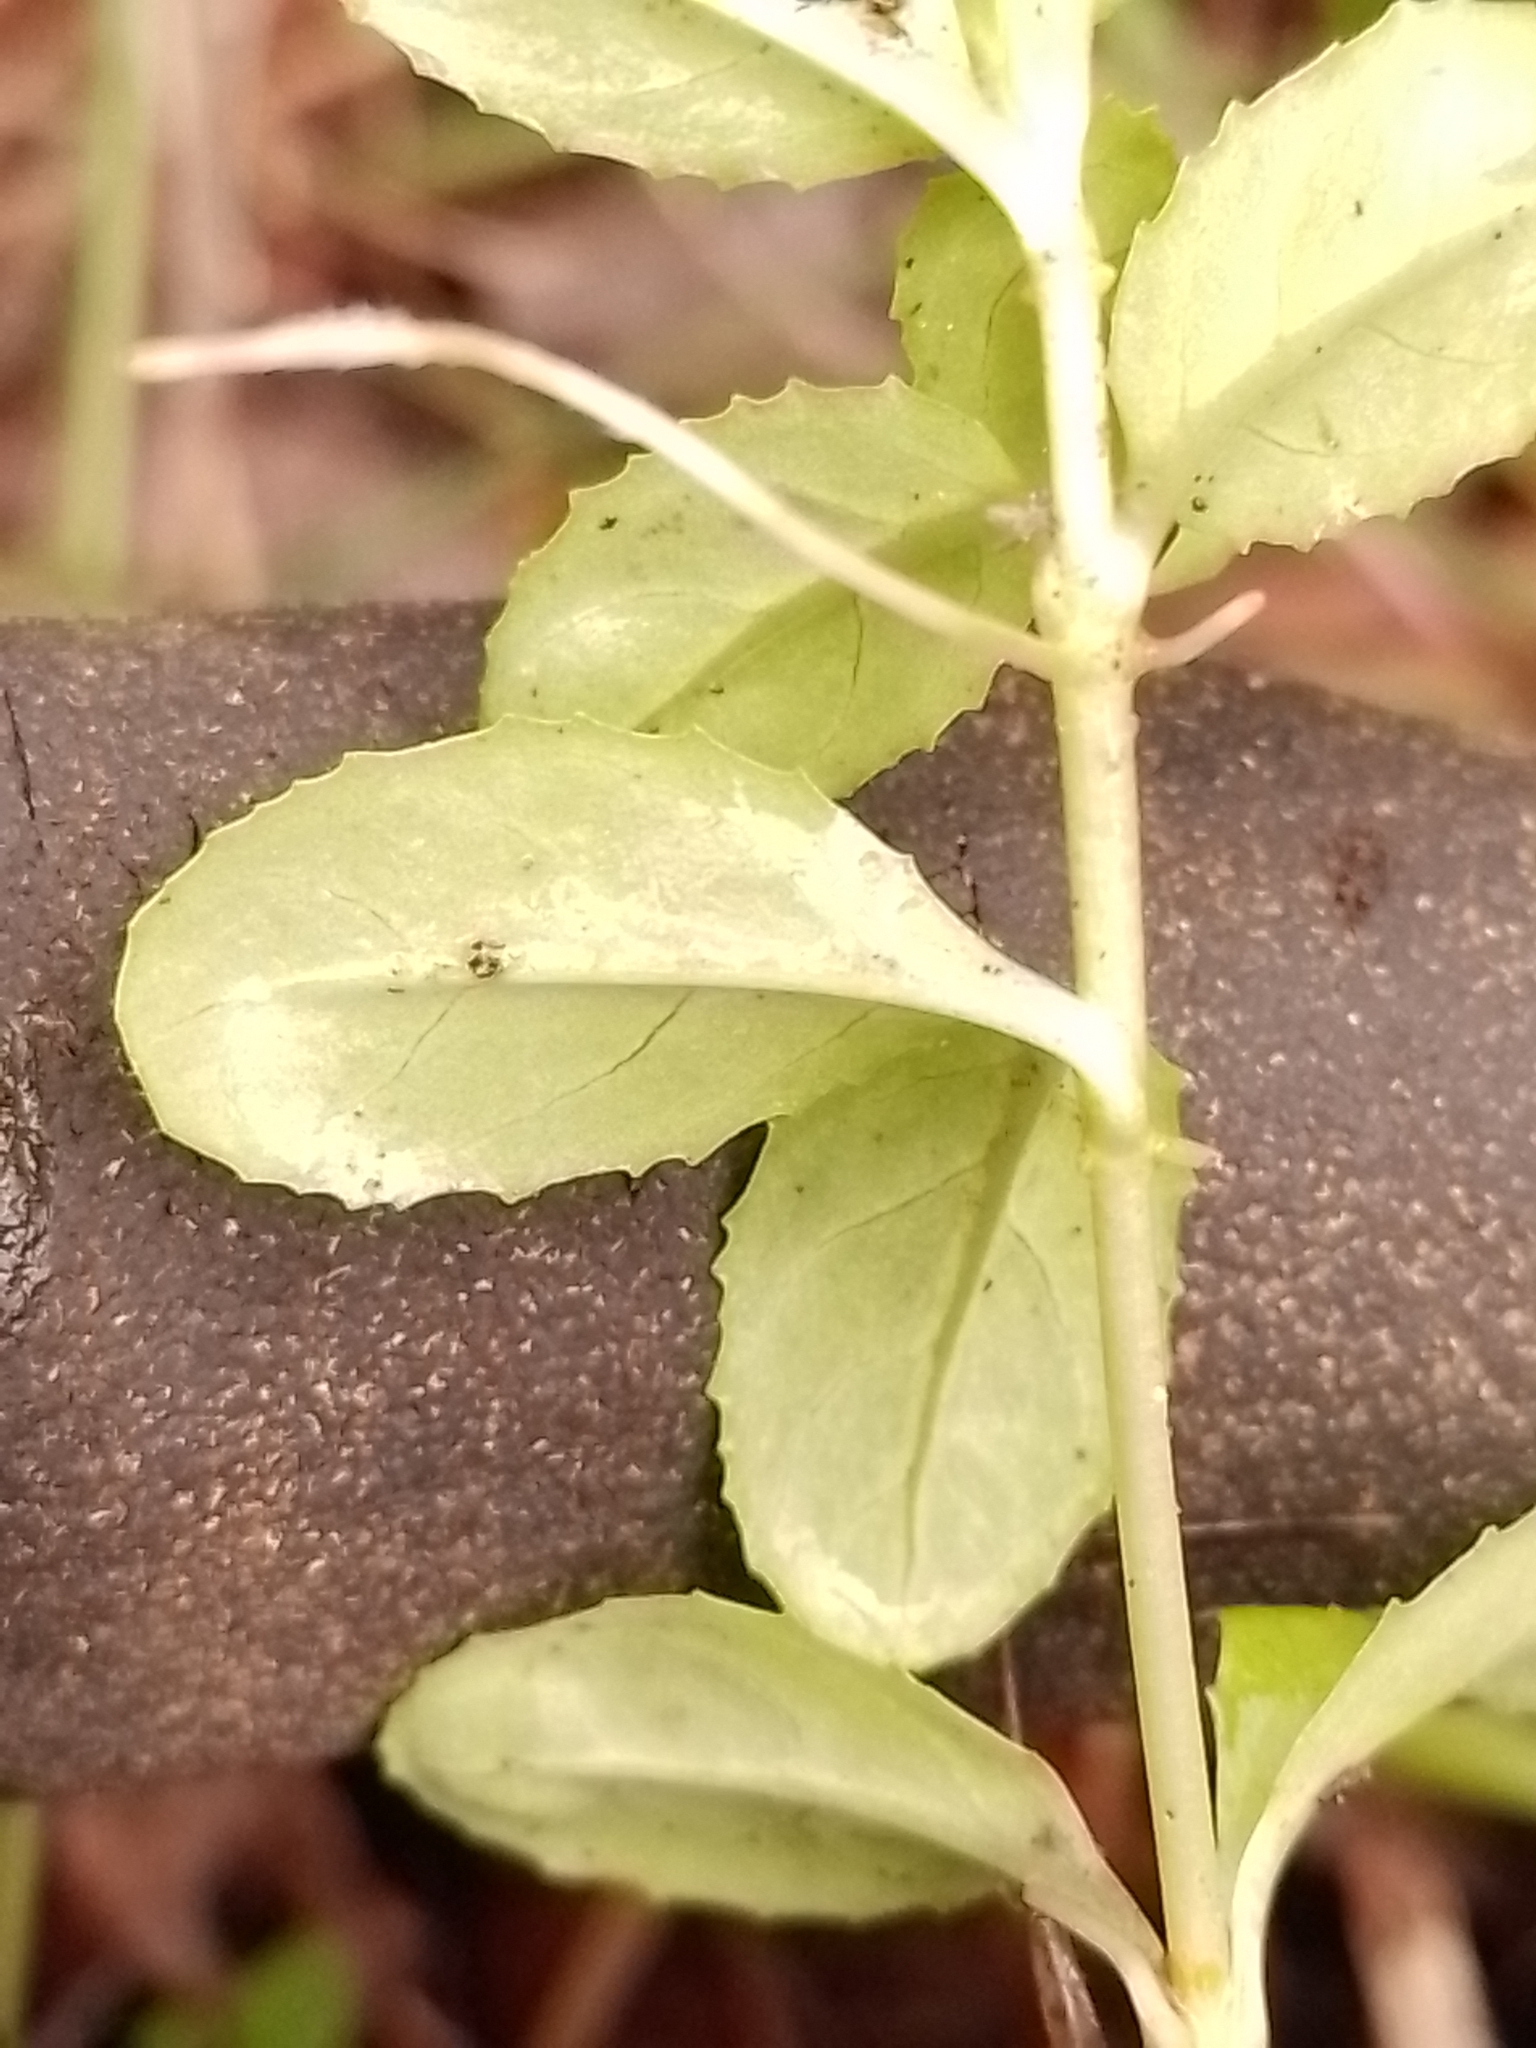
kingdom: Plantae
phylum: Tracheophyta
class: Magnoliopsida
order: Myrtales
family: Onagraceae
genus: Epilobium
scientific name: Epilobium chionanthum
